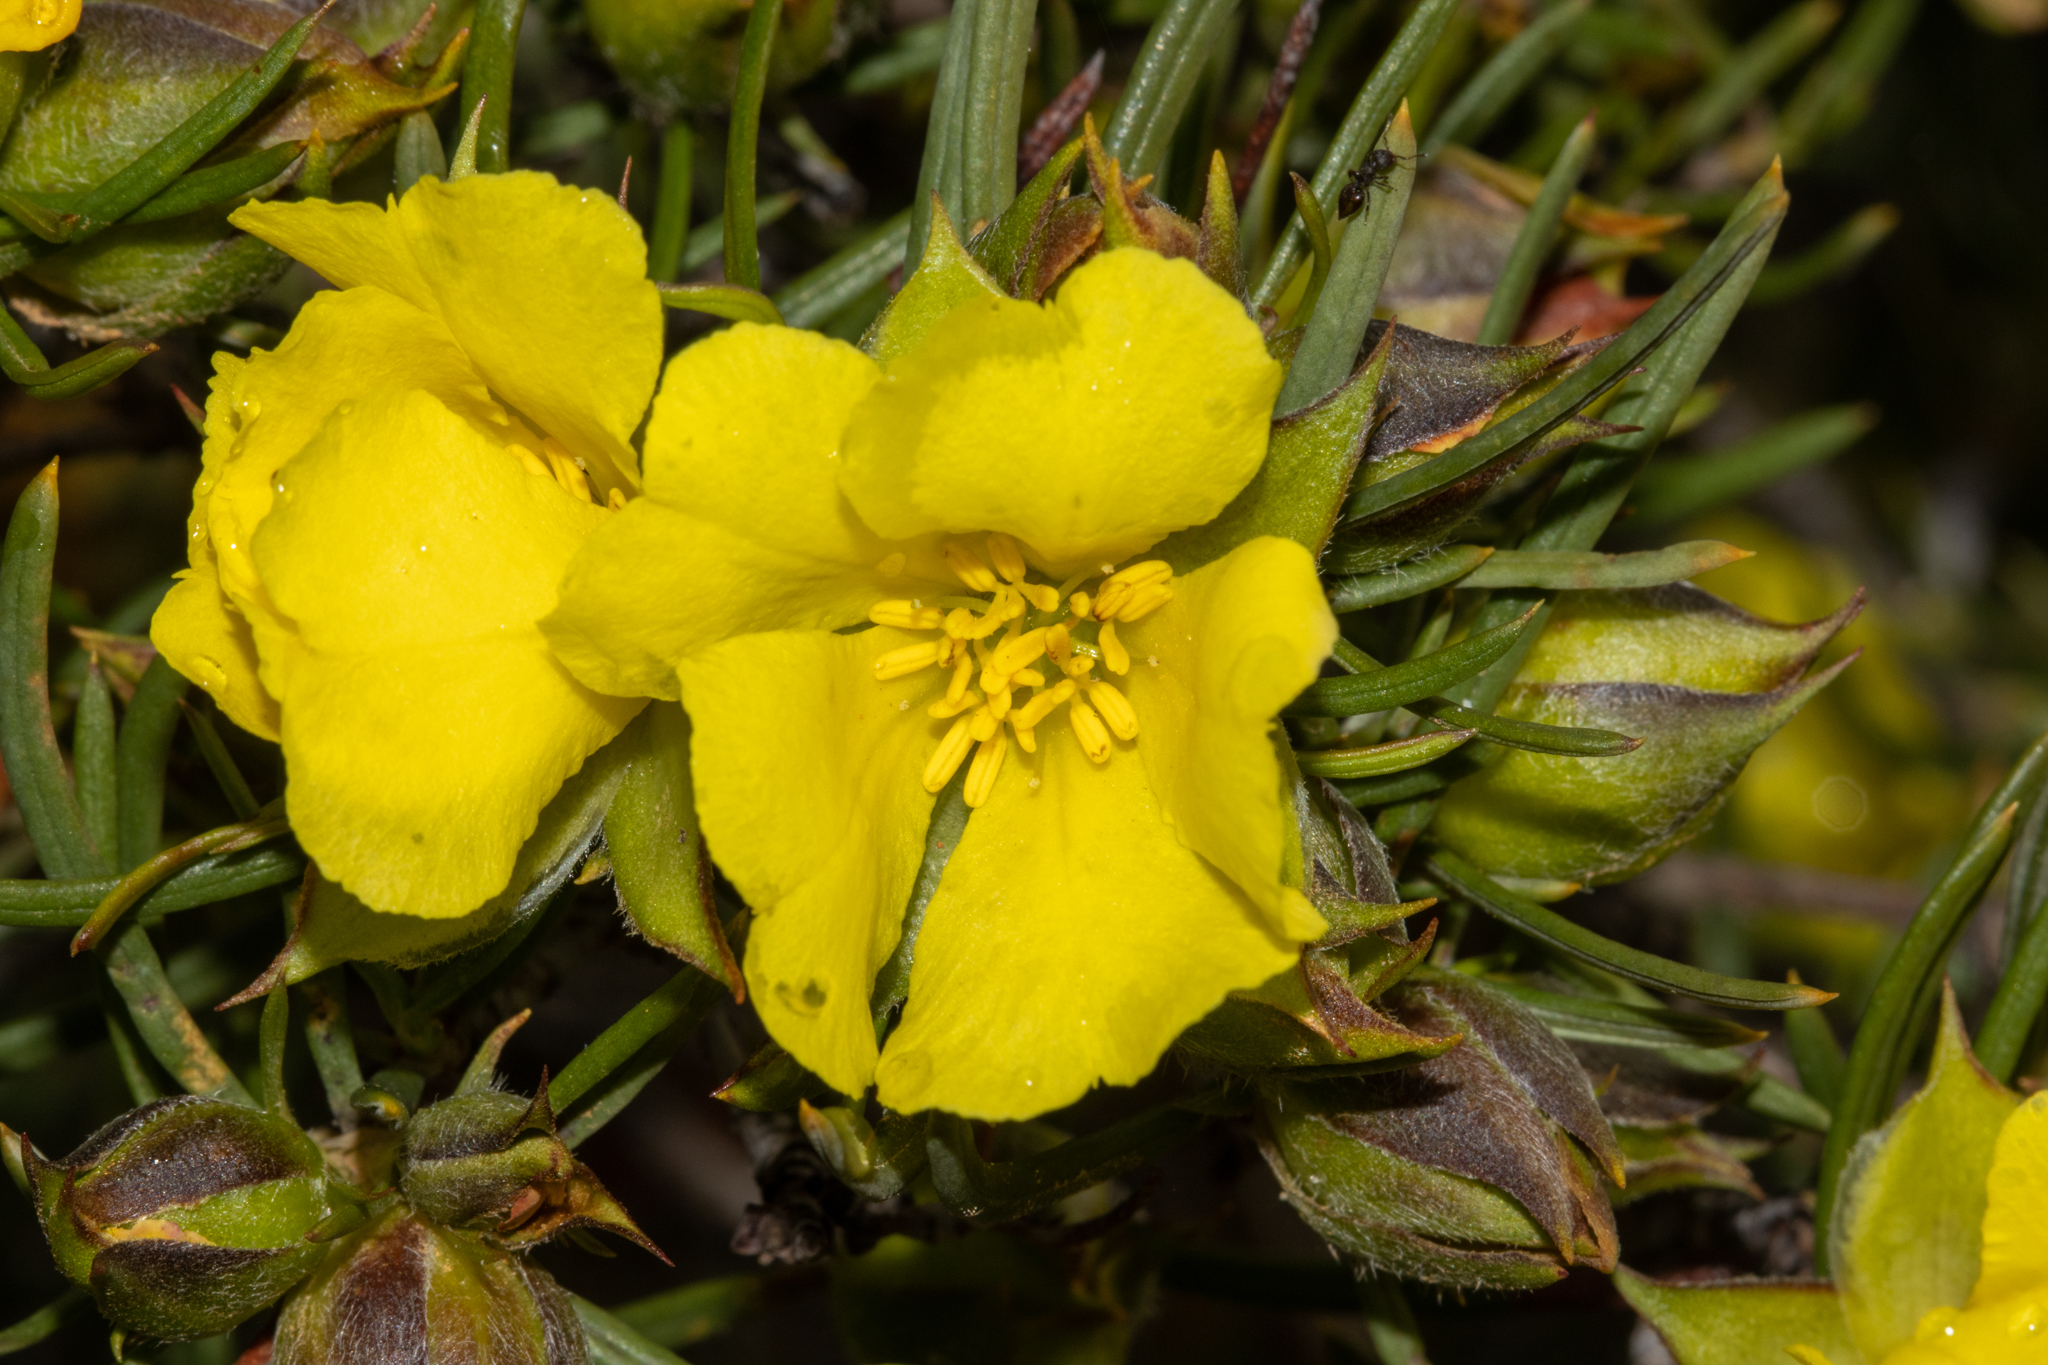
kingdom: Plantae
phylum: Tracheophyta
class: Magnoliopsida
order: Dilleniales
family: Dilleniaceae
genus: Hibbertia
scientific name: Hibbertia striata
